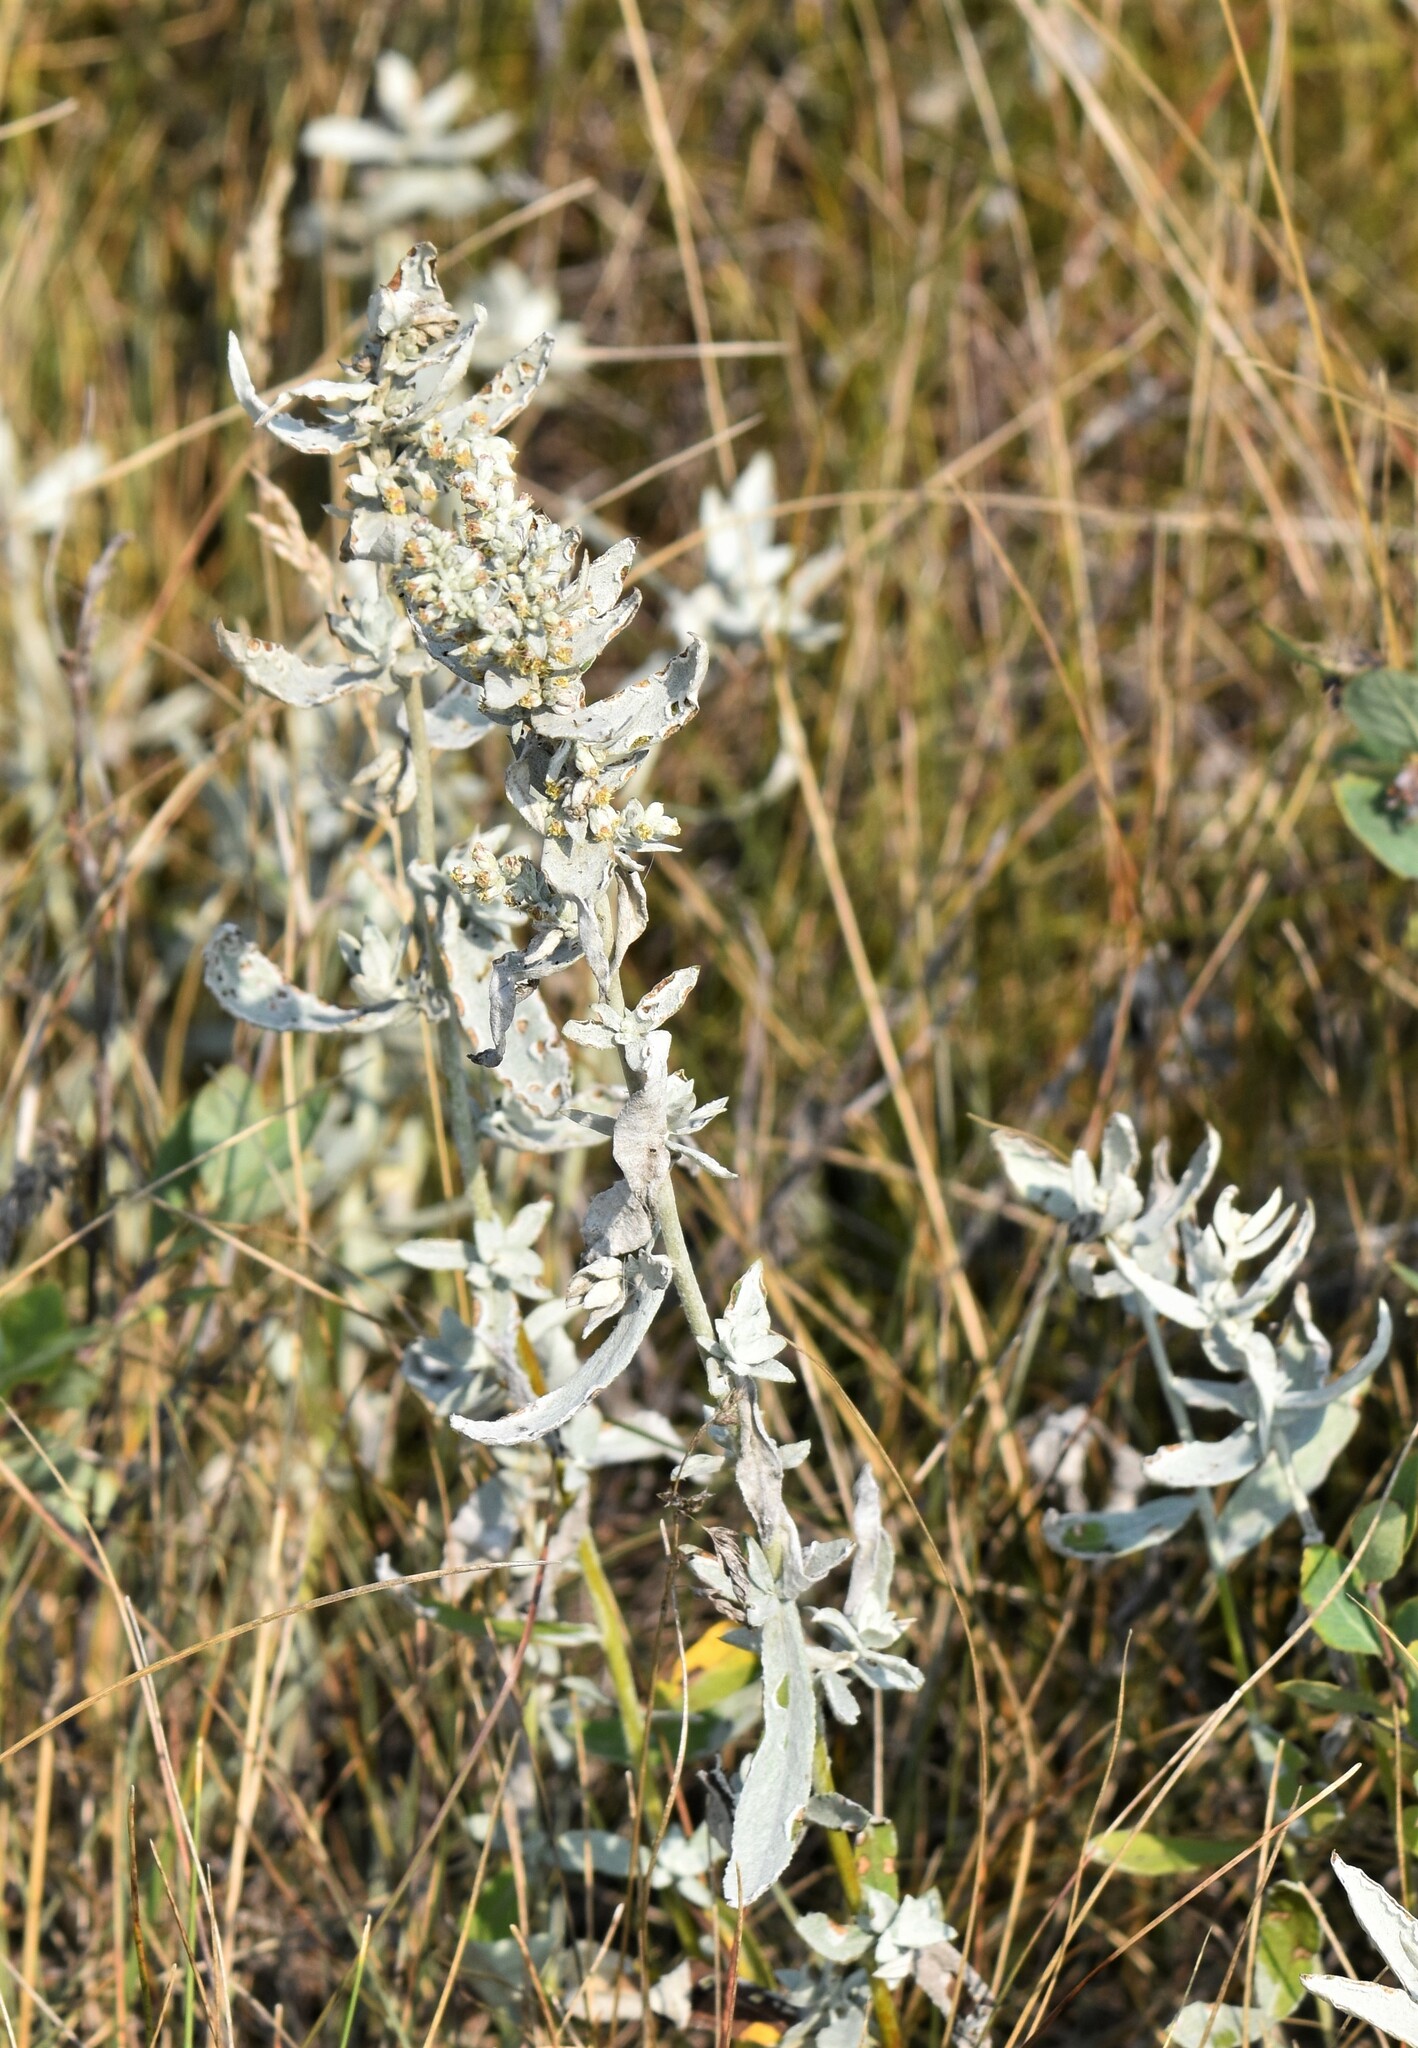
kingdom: Plantae
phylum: Tracheophyta
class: Magnoliopsida
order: Asterales
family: Asteraceae
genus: Artemisia
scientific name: Artemisia ludoviciana
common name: Western mugwort
